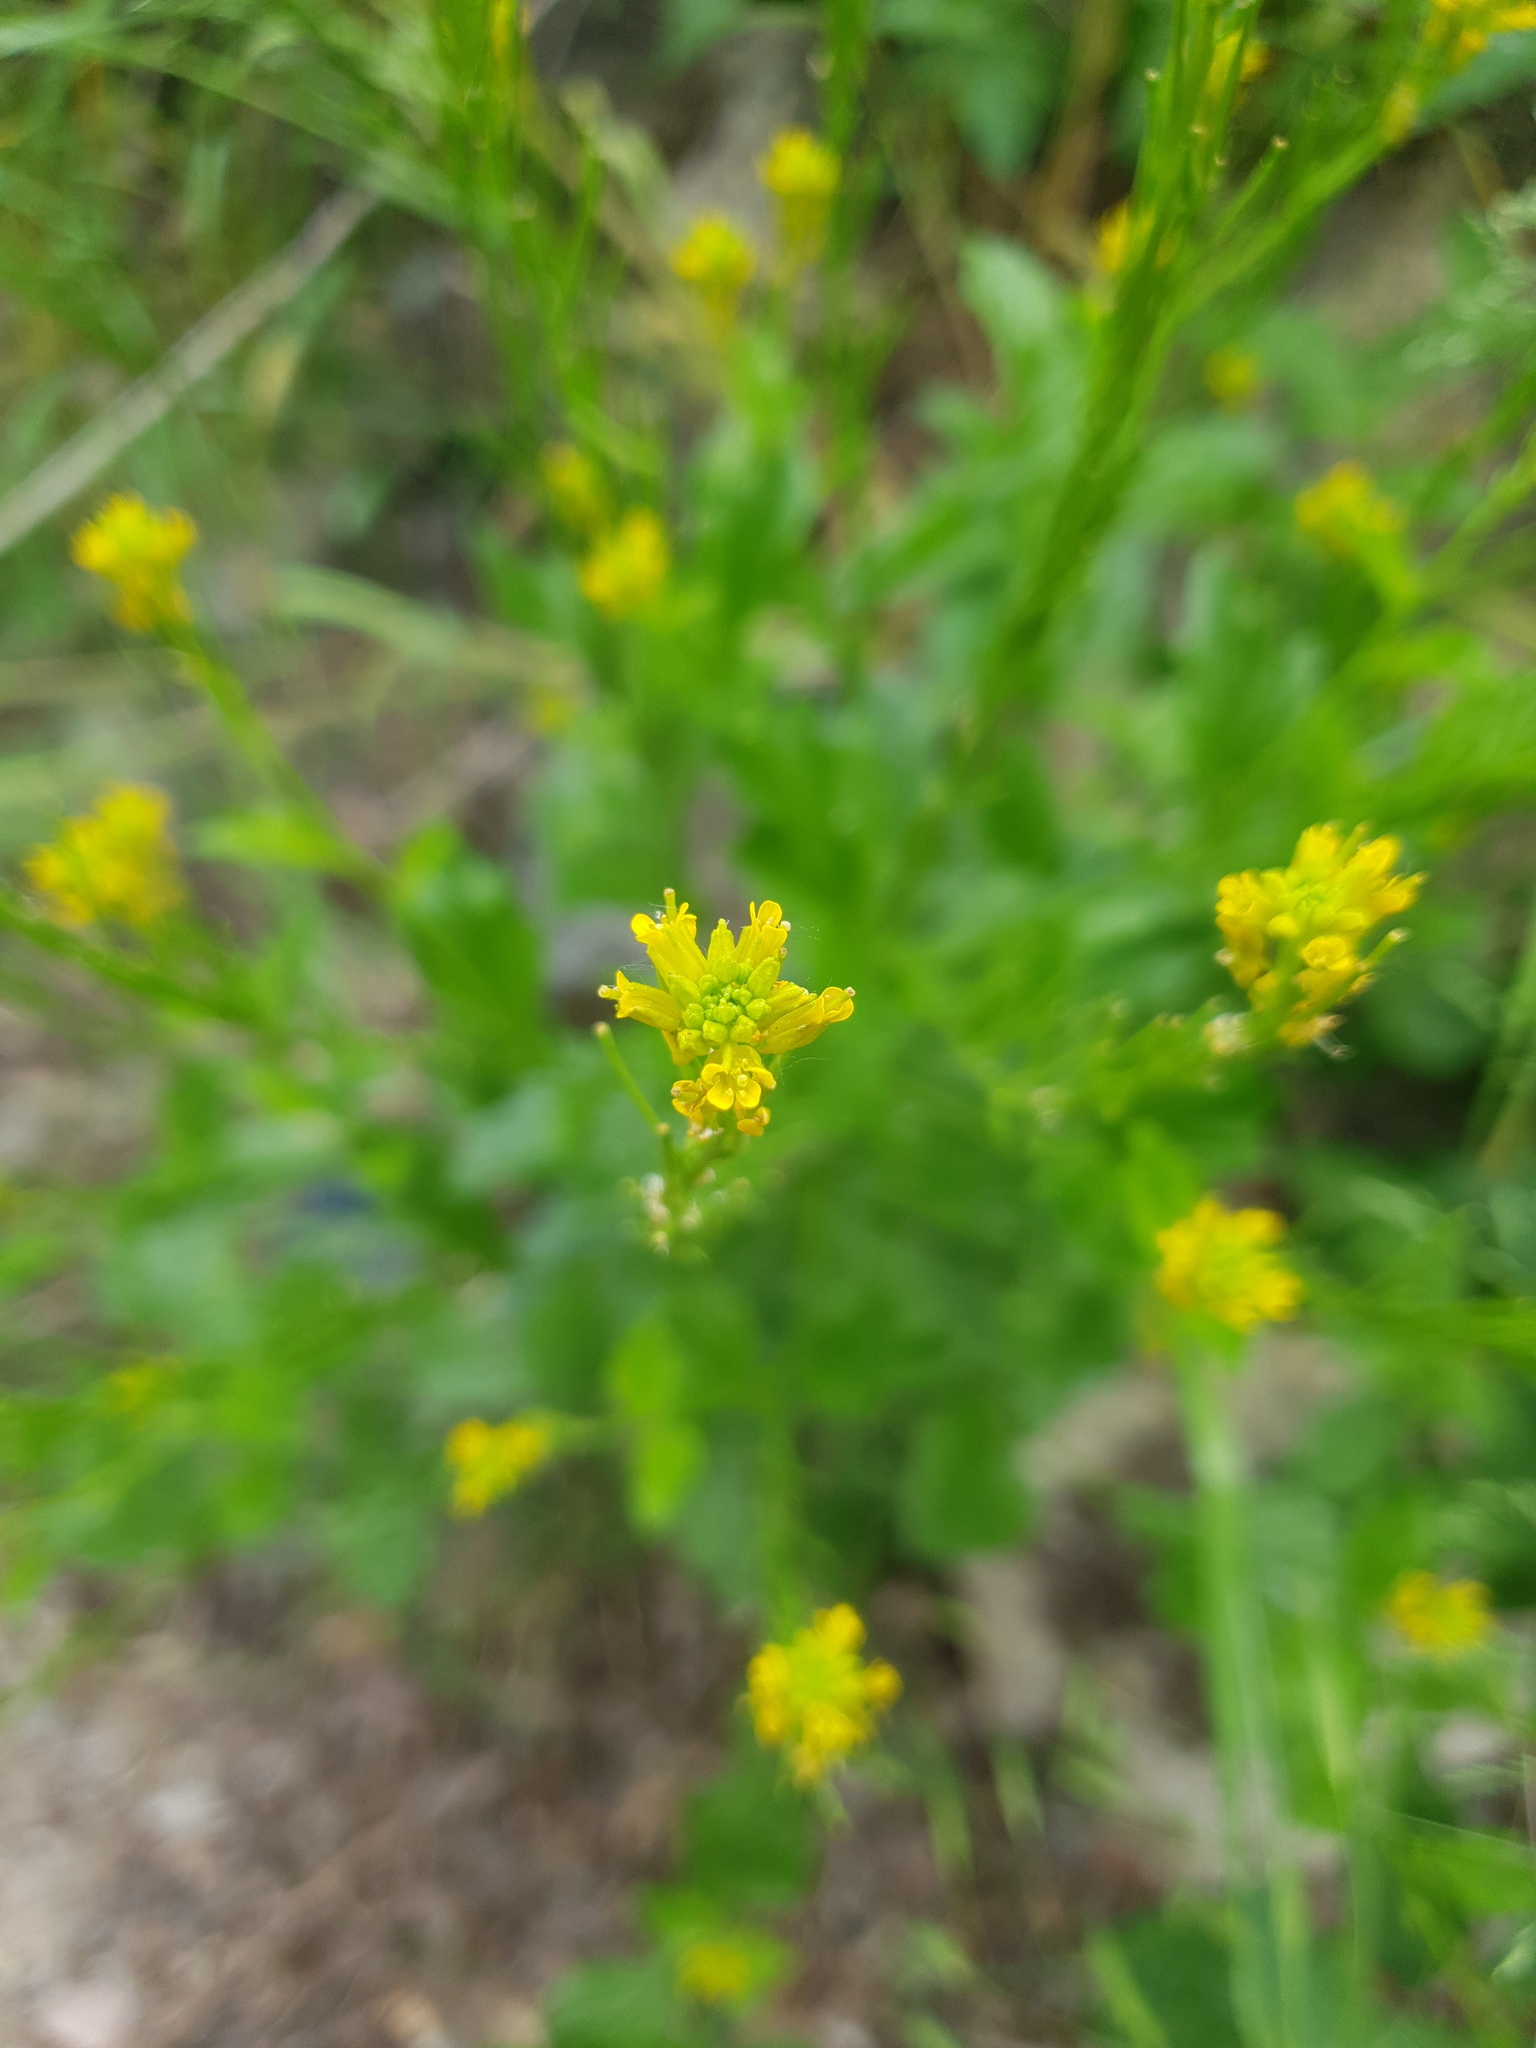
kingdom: Plantae
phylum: Tracheophyta
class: Magnoliopsida
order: Brassicales
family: Brassicaceae
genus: Barbarea
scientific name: Barbarea stricta
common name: Small-flowered winter-cress
